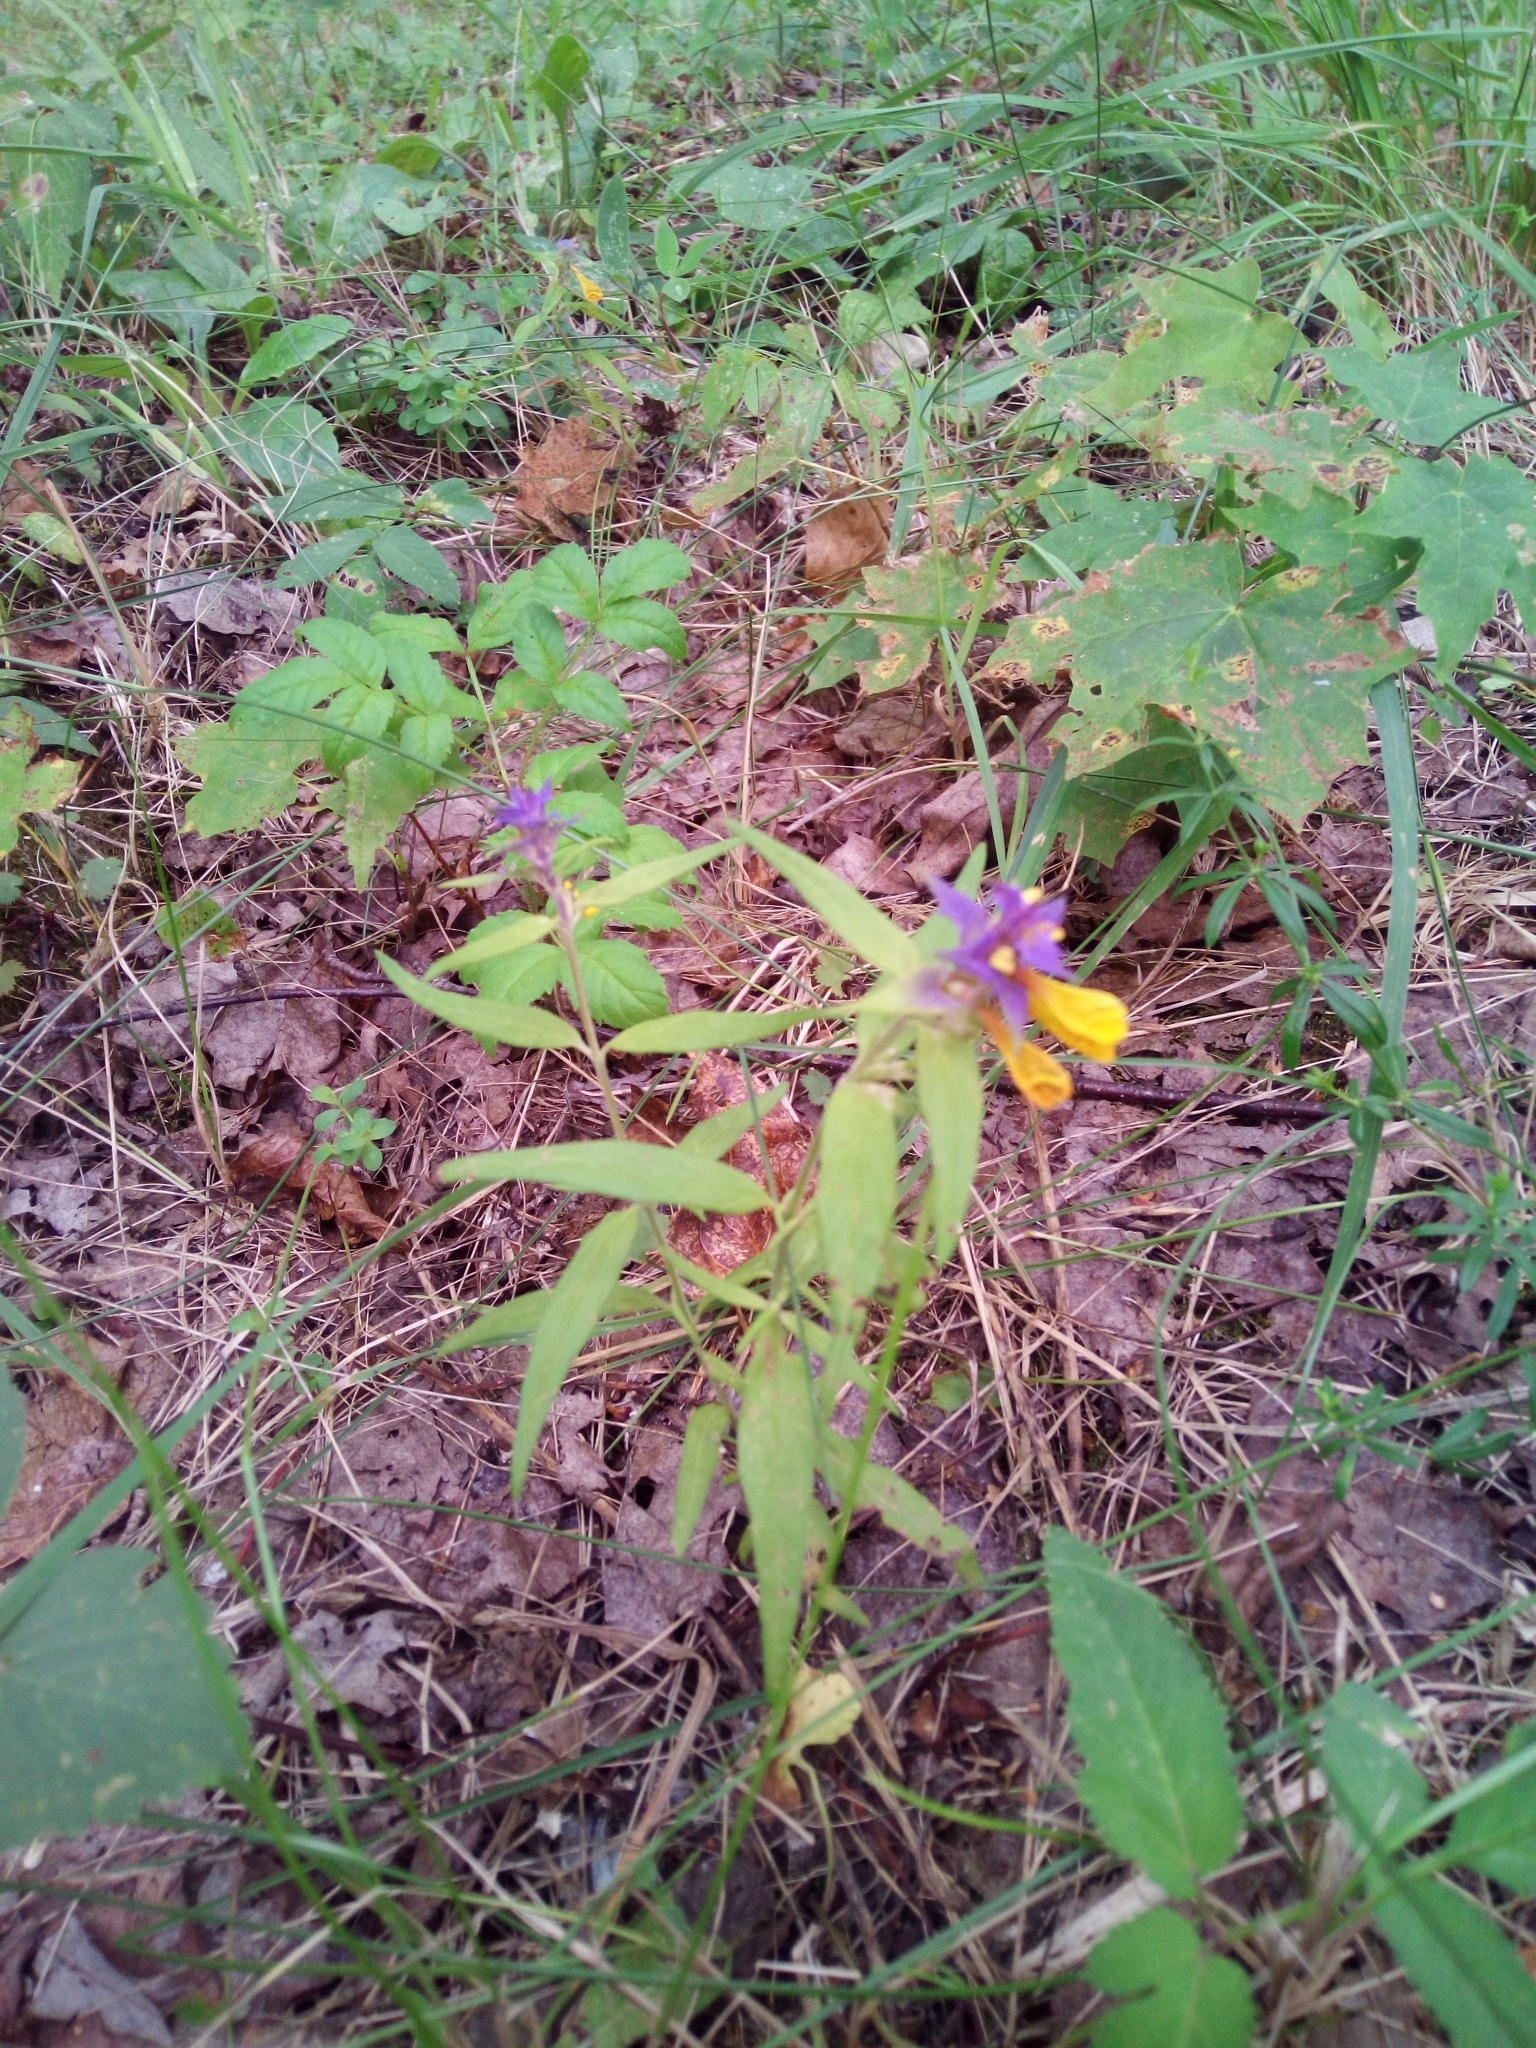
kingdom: Plantae
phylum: Tracheophyta
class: Magnoliopsida
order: Lamiales
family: Orobanchaceae
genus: Melampyrum
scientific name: Melampyrum nemorosum
